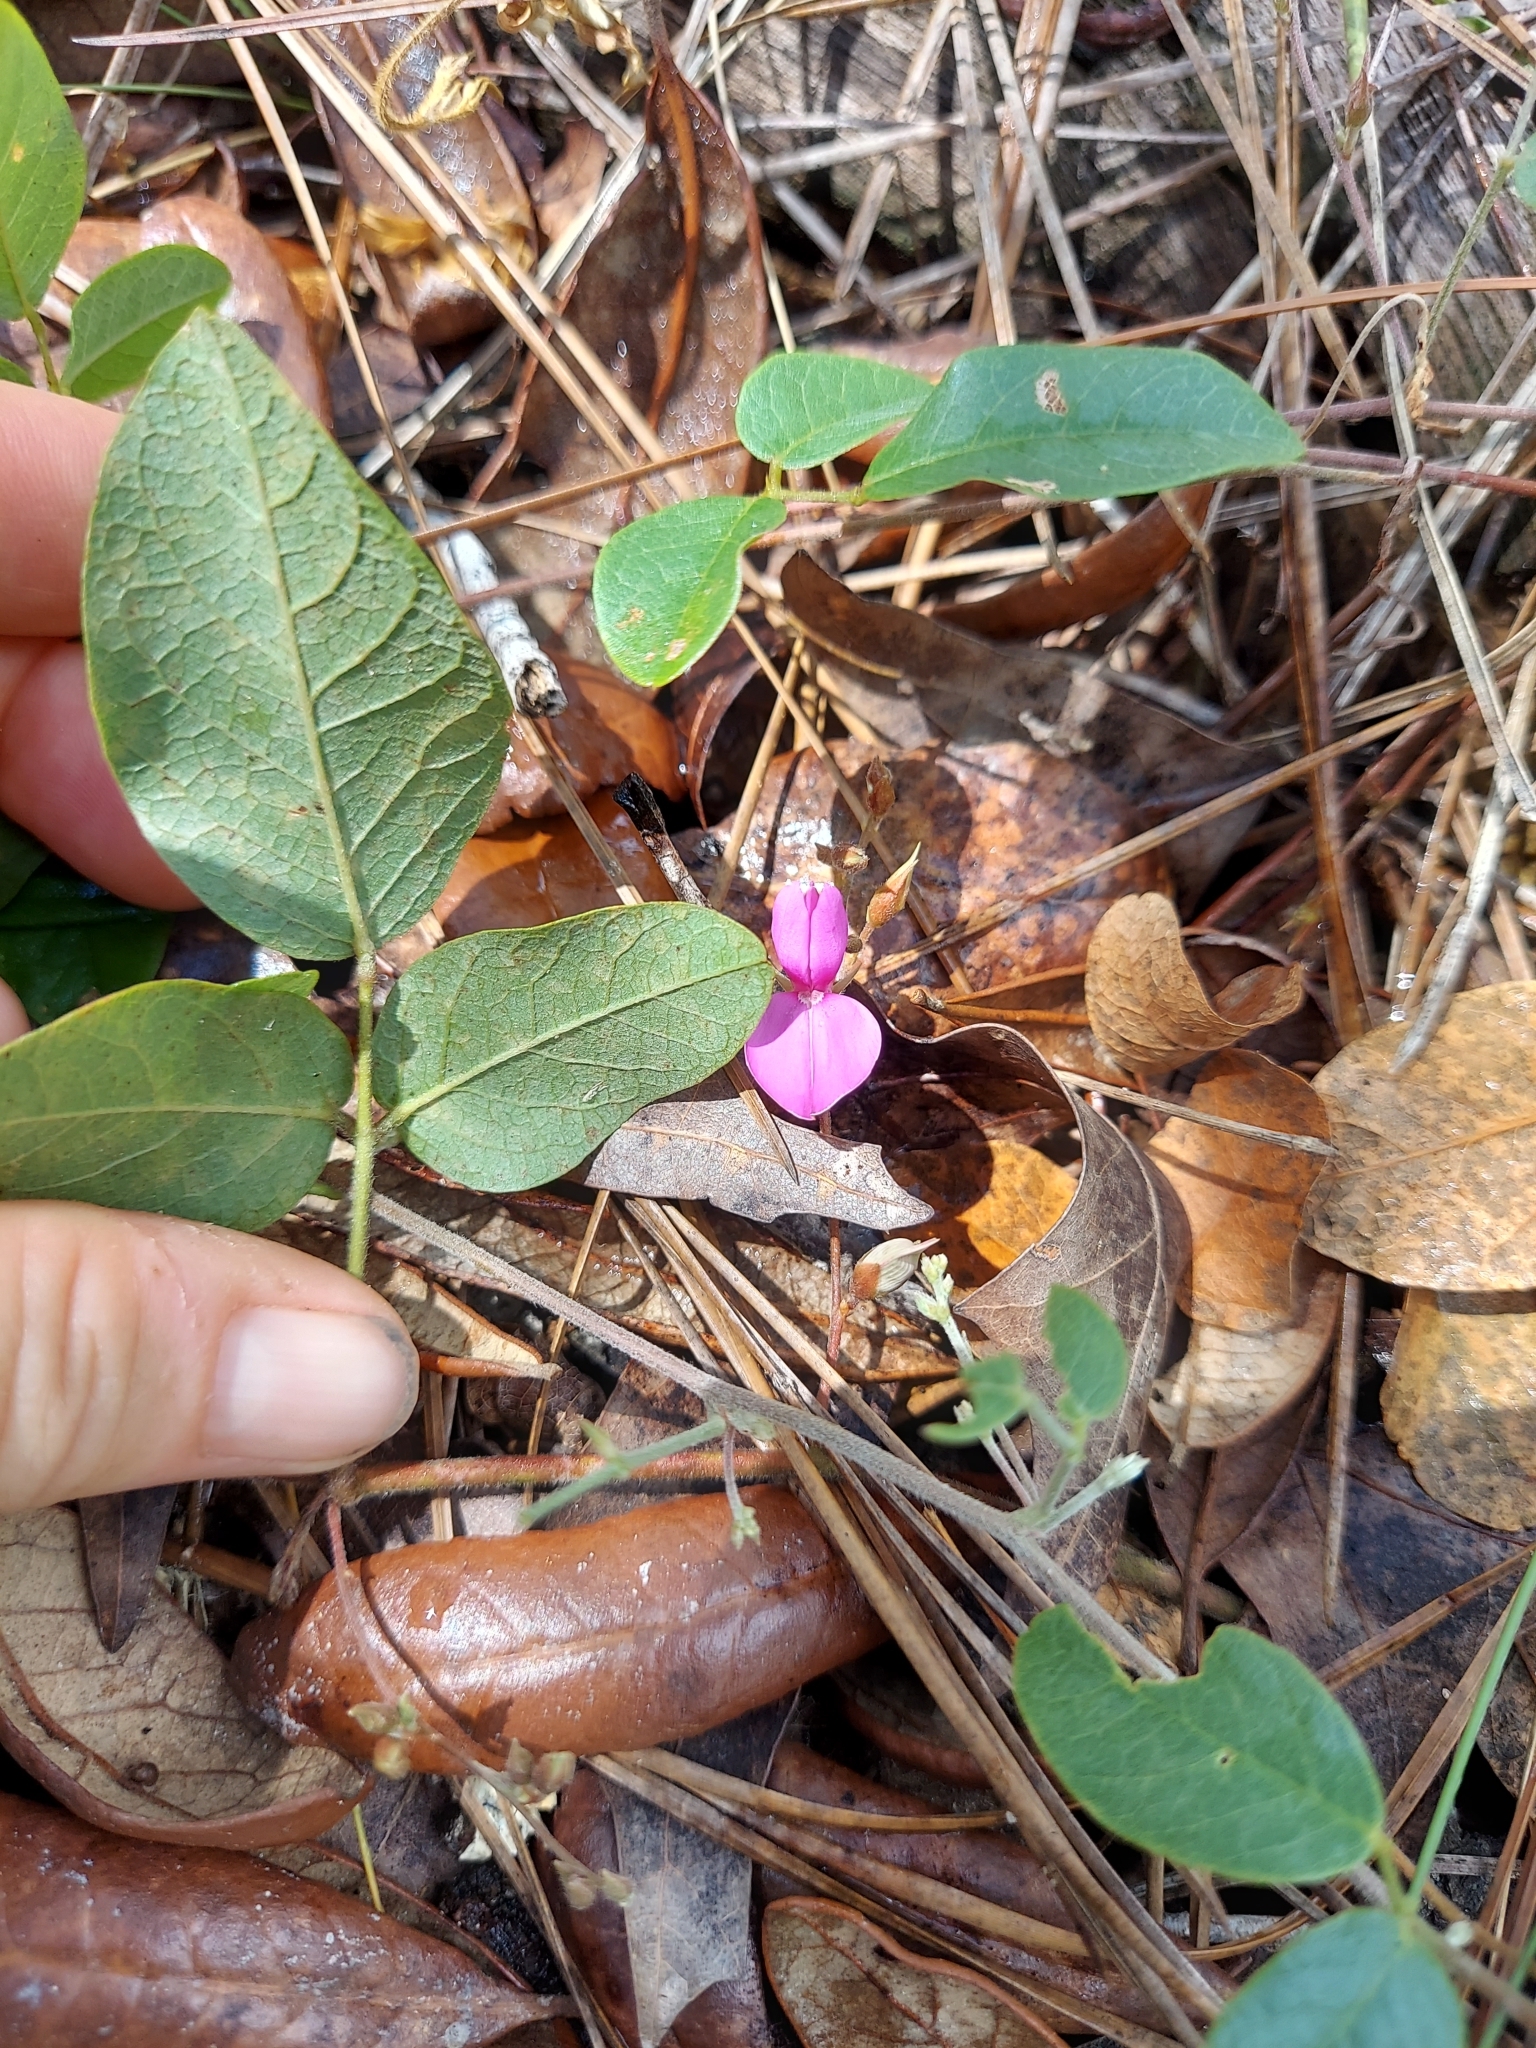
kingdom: Plantae
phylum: Tracheophyta
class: Magnoliopsida
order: Fabales
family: Fabaceae
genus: Galactia
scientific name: Galactia floridana
